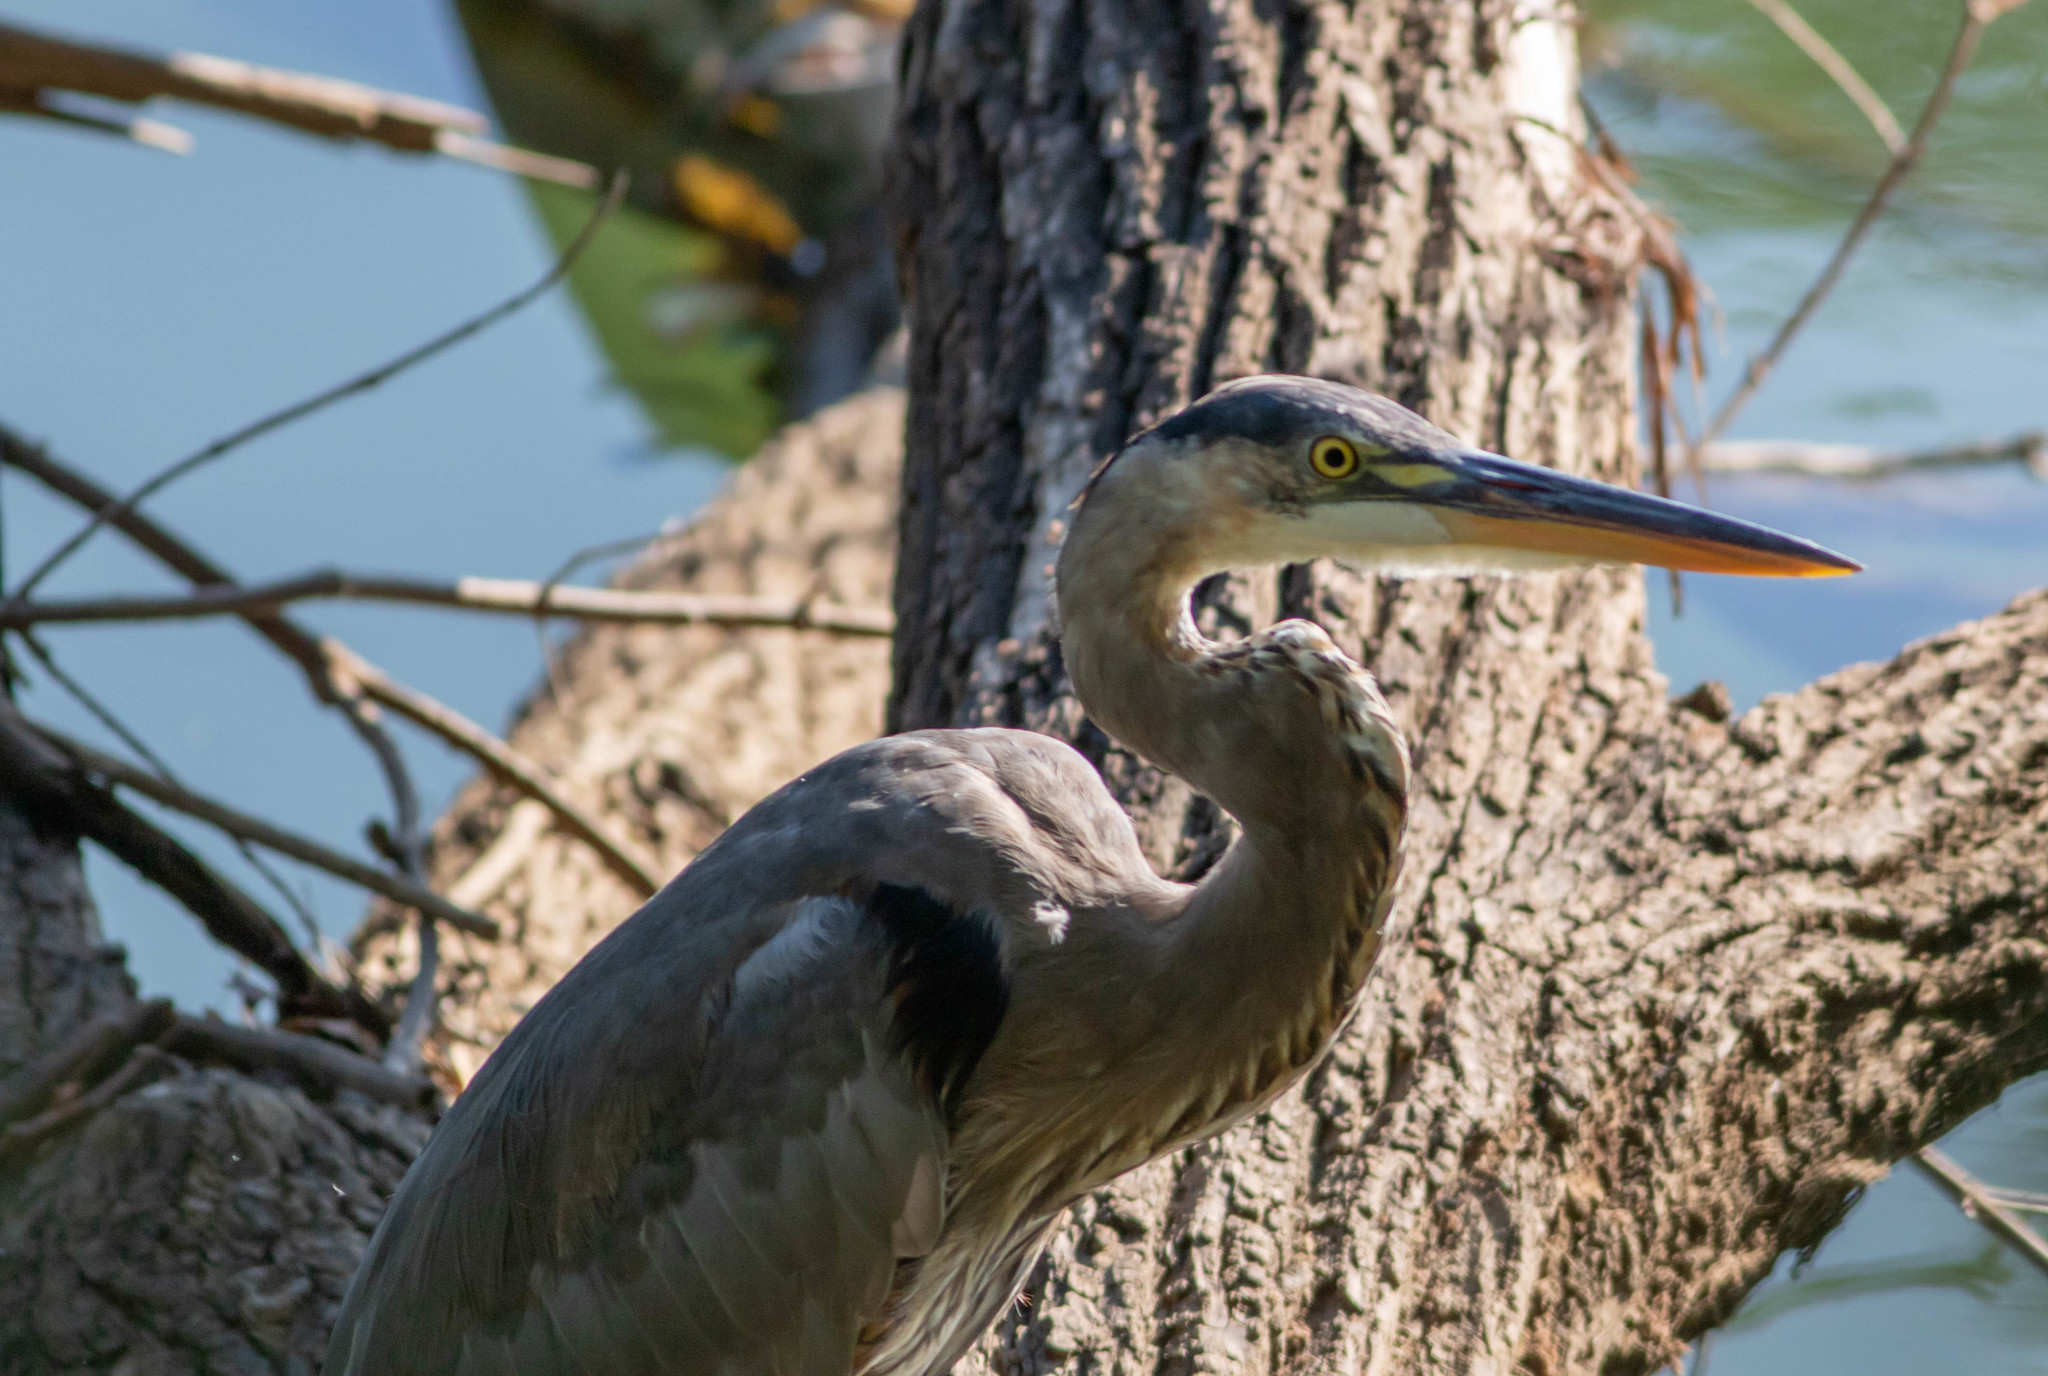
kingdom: Animalia
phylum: Chordata
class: Aves
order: Pelecaniformes
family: Ardeidae
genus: Ardea
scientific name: Ardea herodias
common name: Great blue heron
